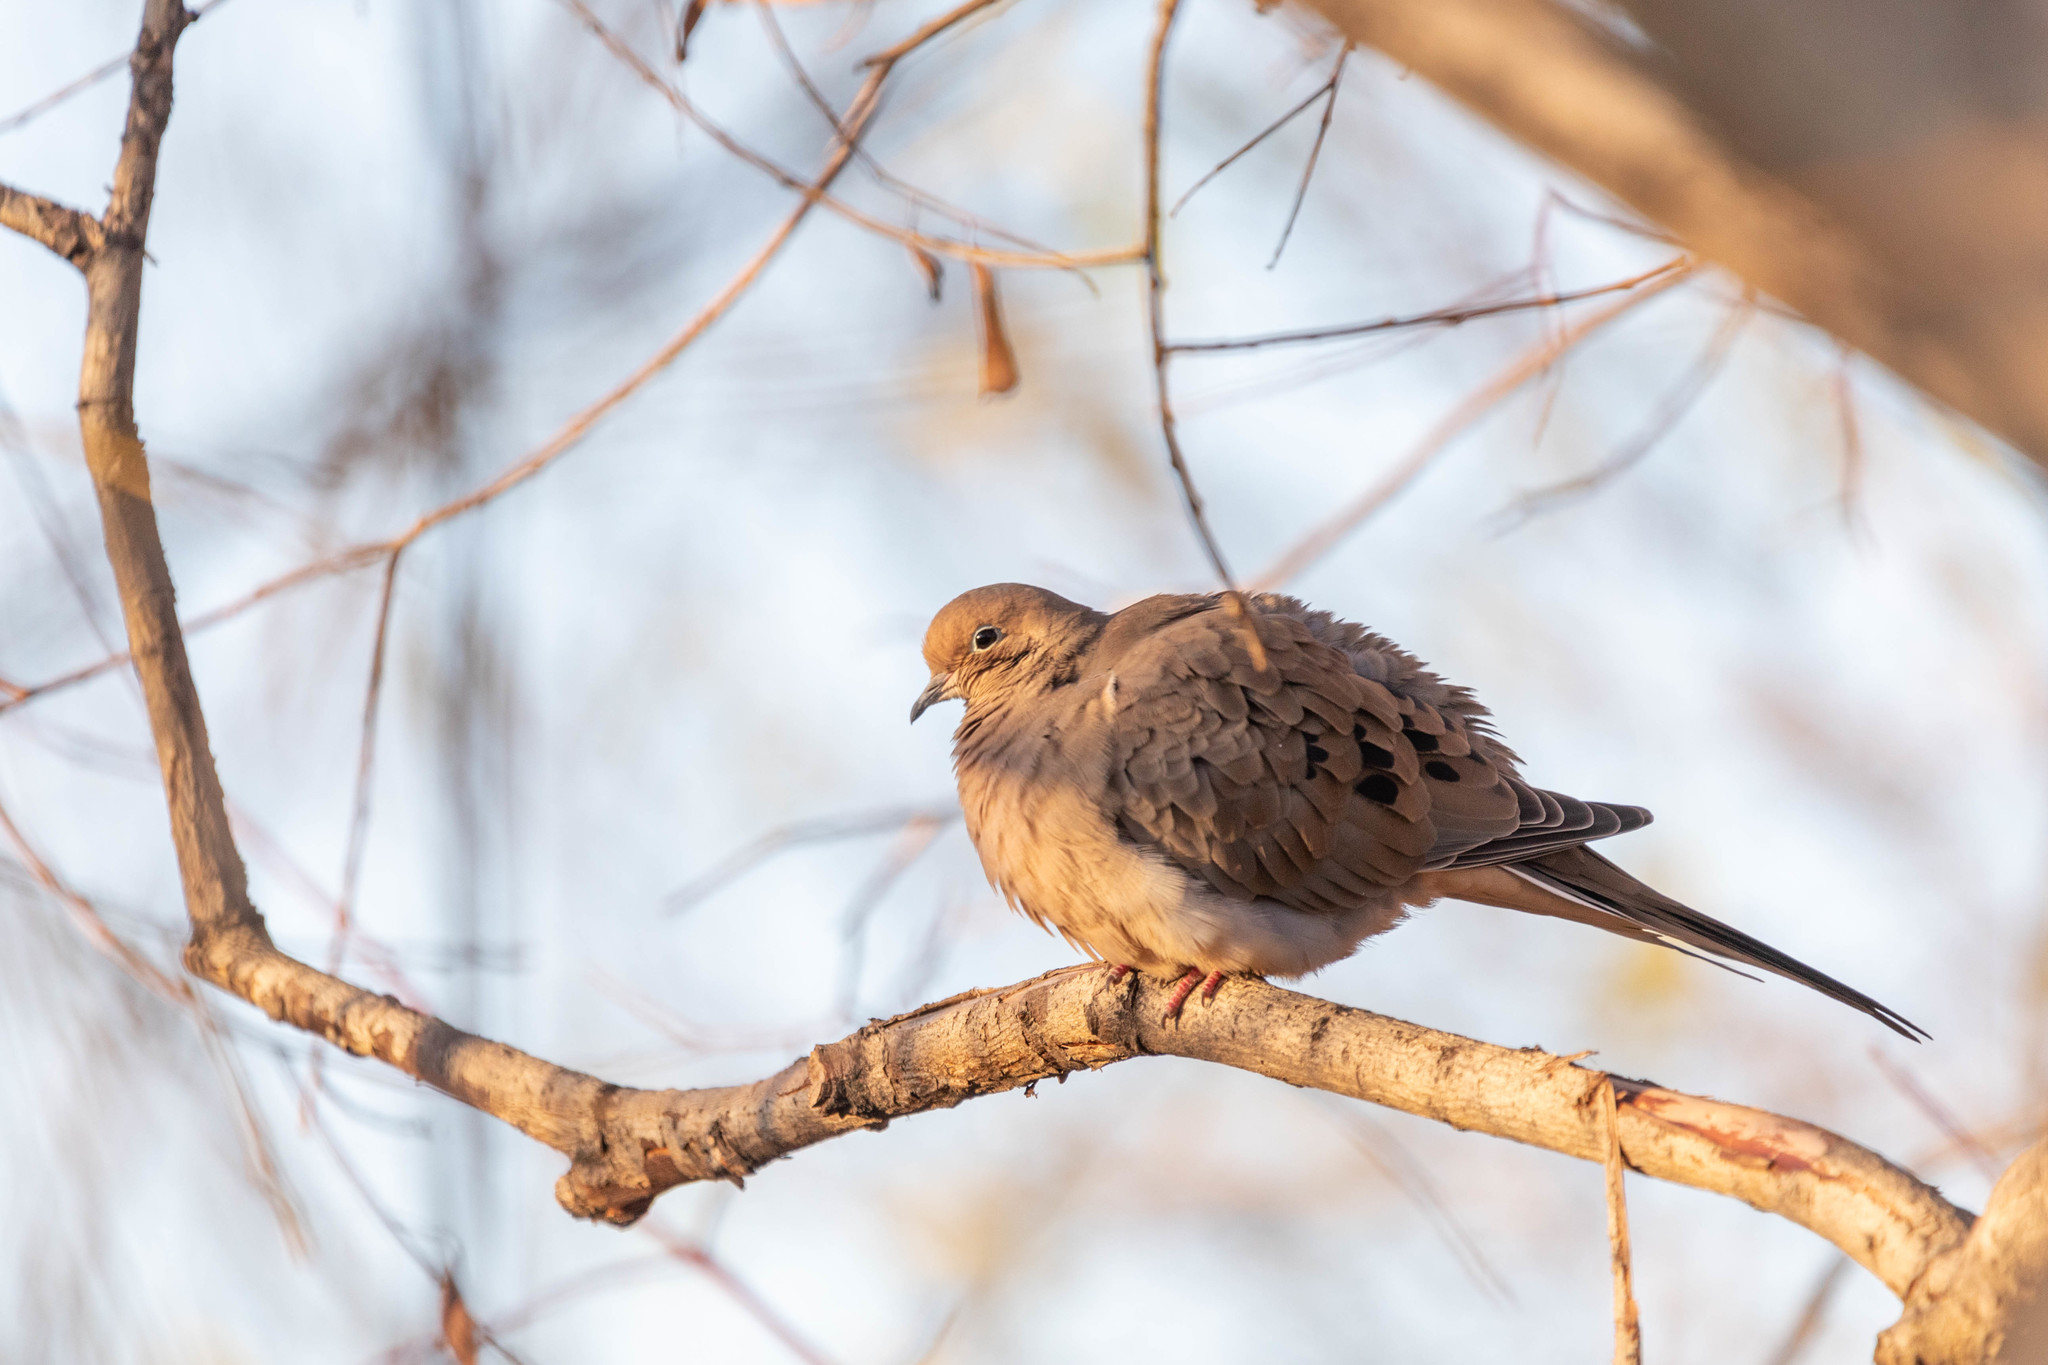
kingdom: Animalia
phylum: Chordata
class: Aves
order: Columbiformes
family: Columbidae
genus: Zenaida
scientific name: Zenaida macroura
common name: Mourning dove
